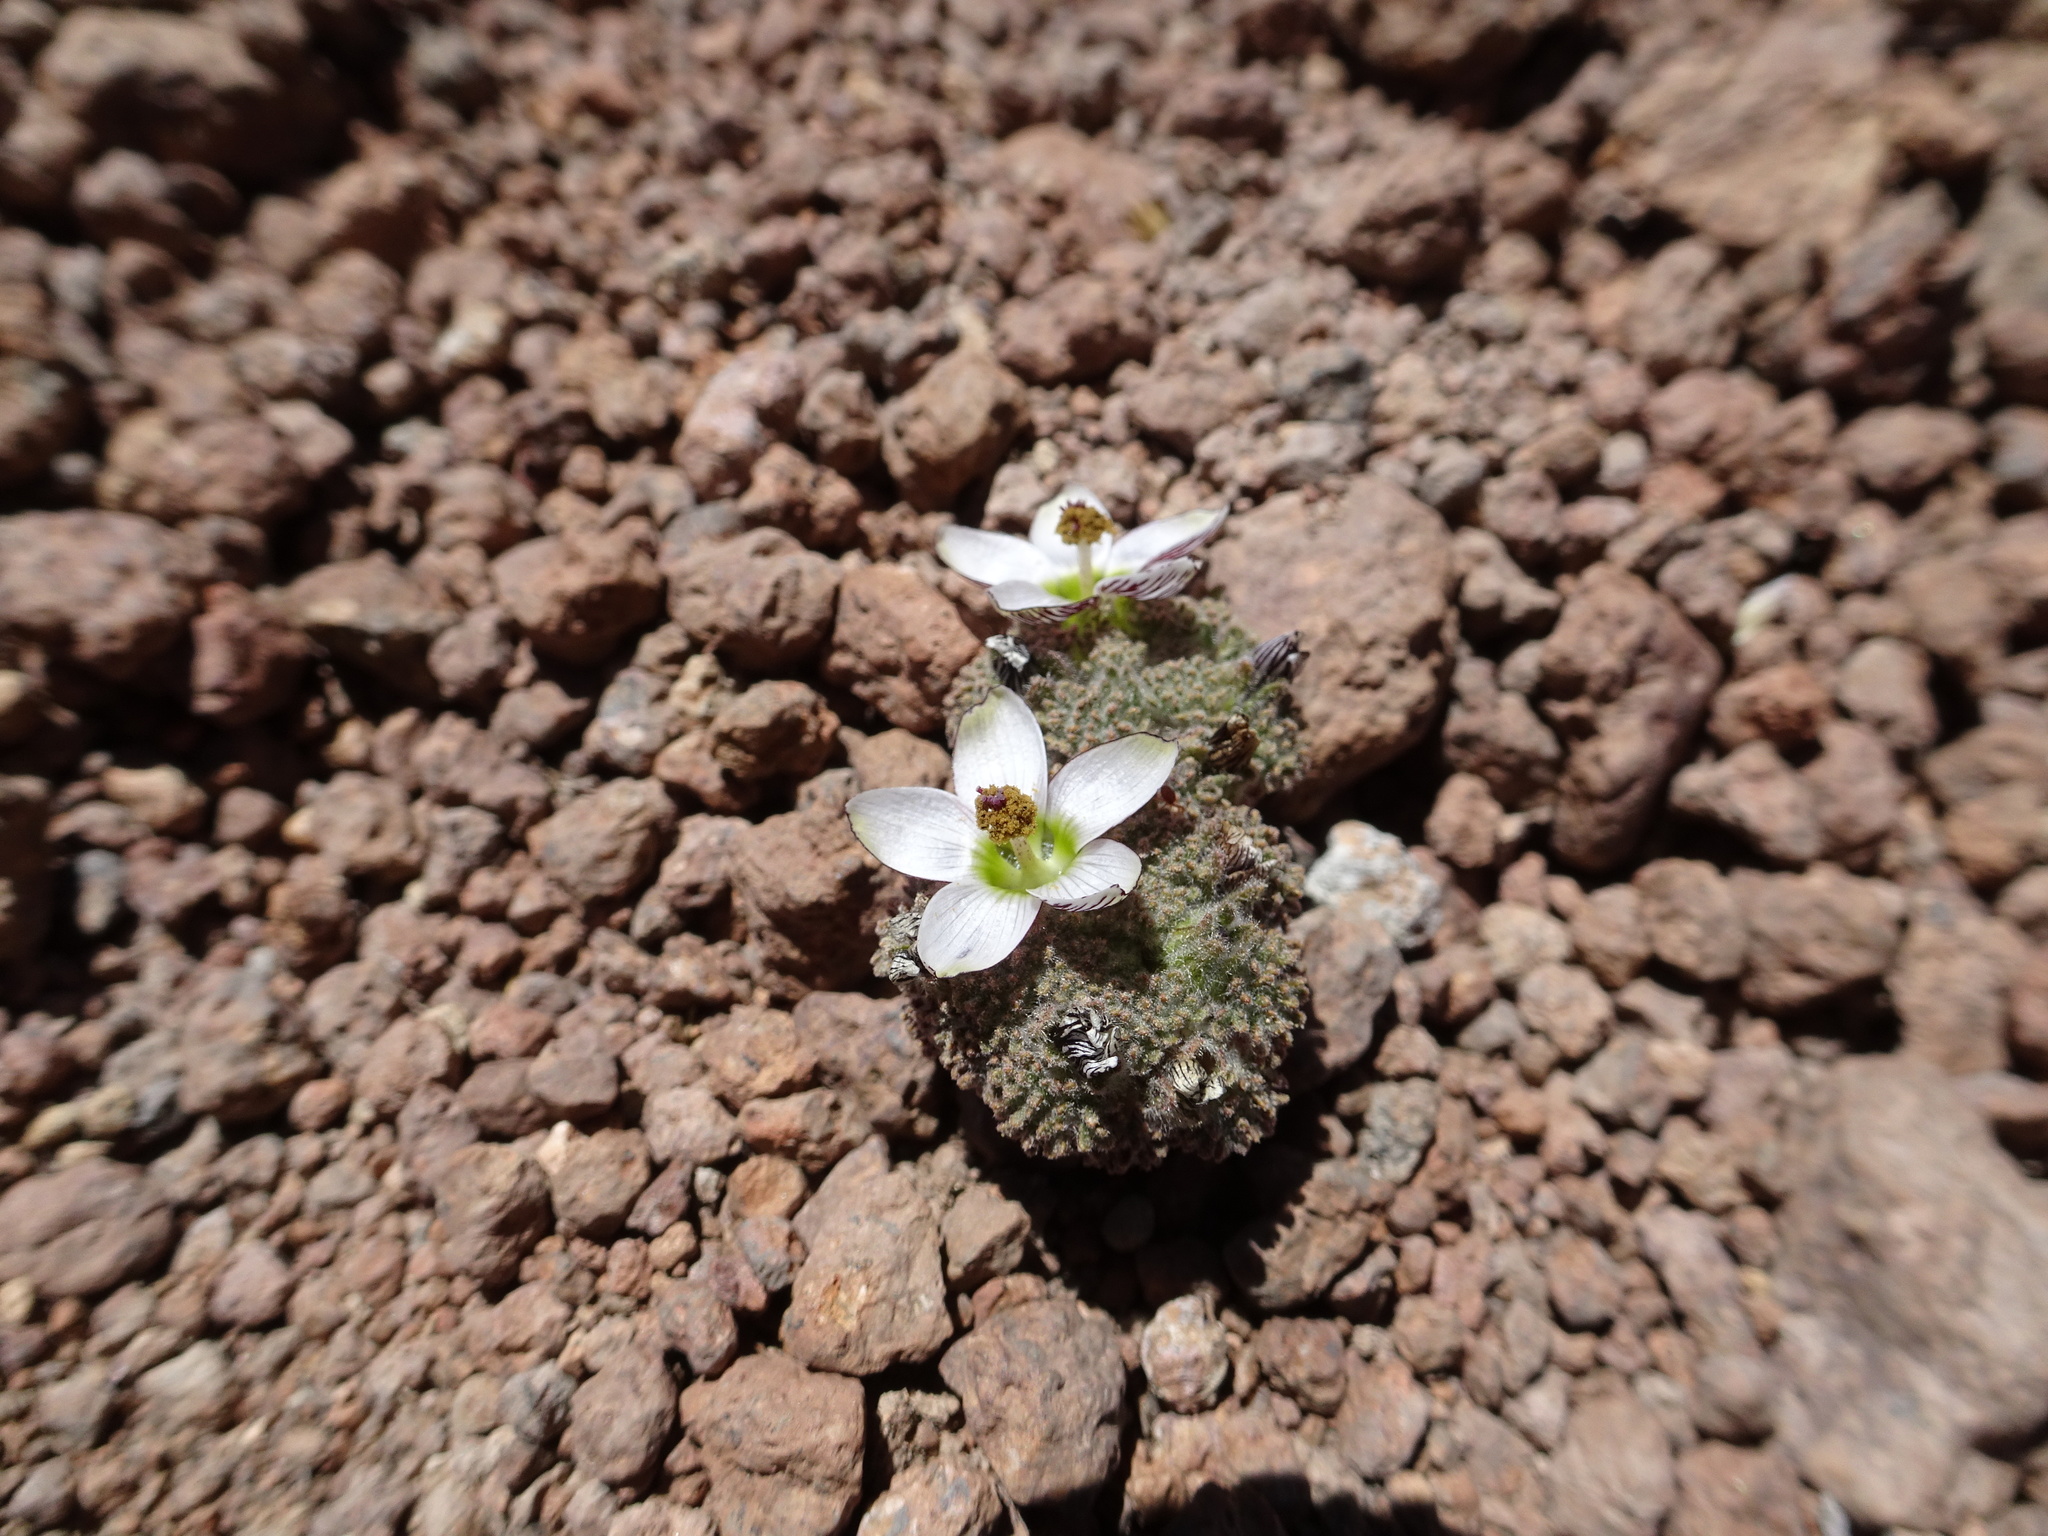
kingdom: Plantae
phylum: Tracheophyta
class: Magnoliopsida
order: Malvales
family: Malvaceae
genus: Nototriche
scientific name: Nototriche turritella
